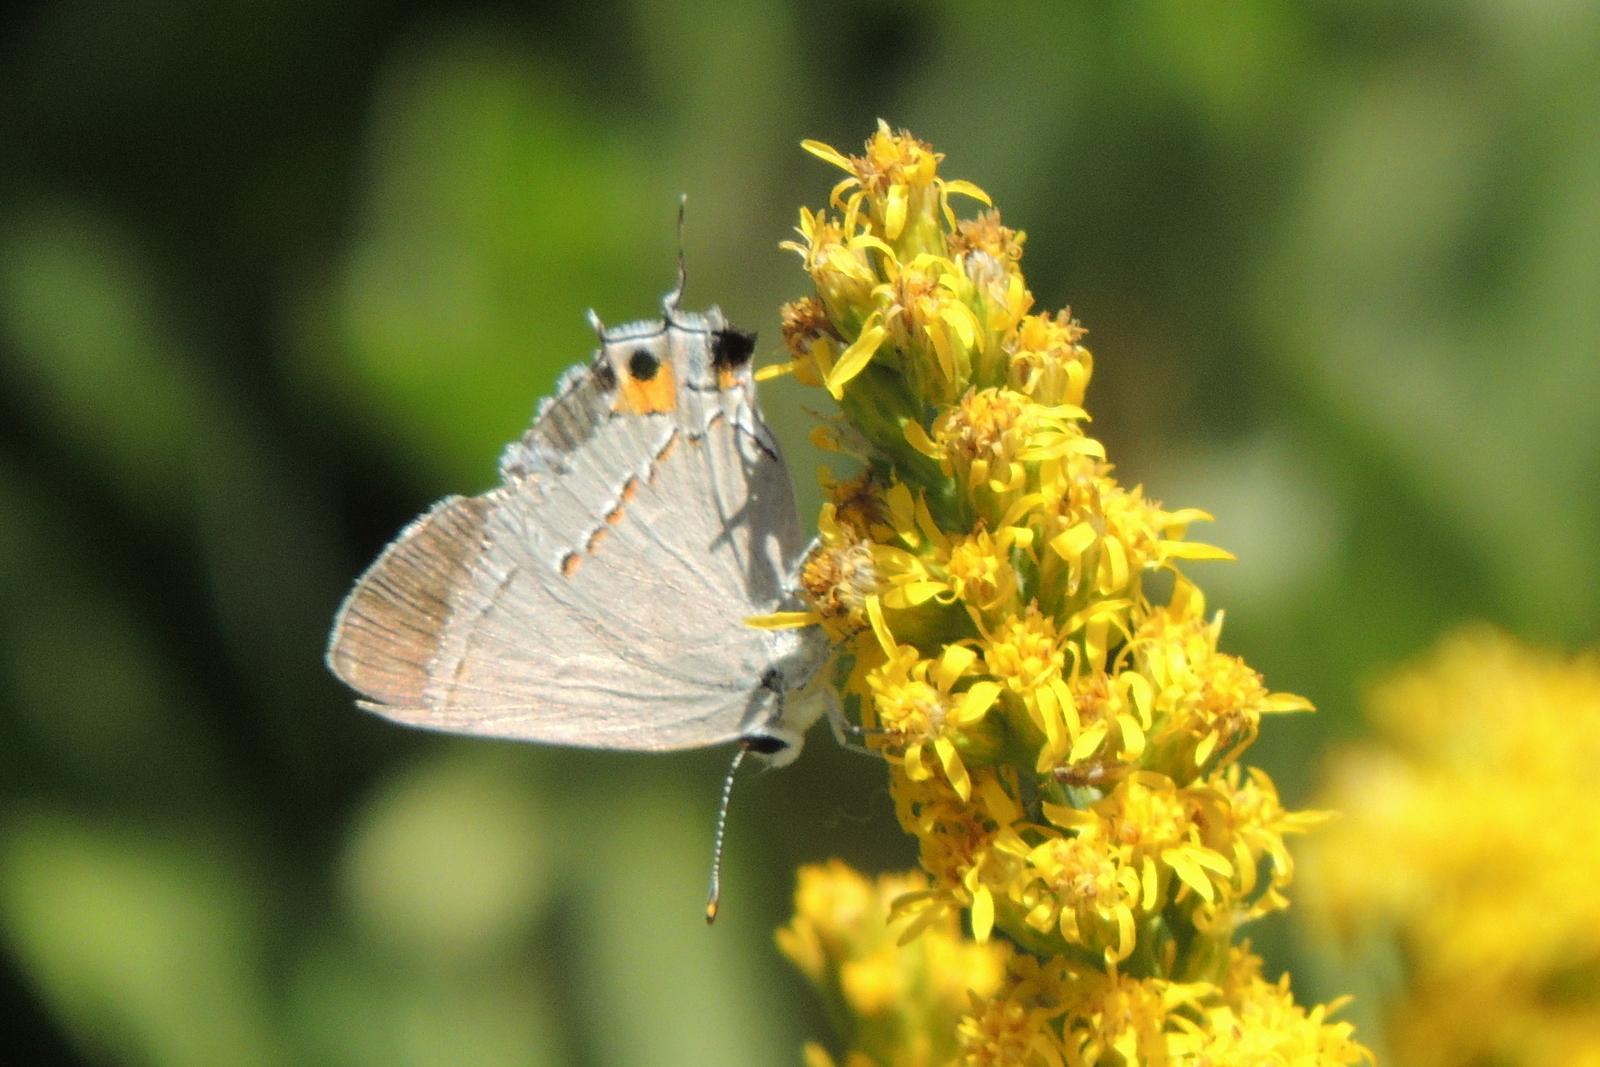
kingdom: Animalia
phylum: Arthropoda
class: Insecta
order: Lepidoptera
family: Lycaenidae
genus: Strymon
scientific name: Strymon melinus
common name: Gray hairstreak
